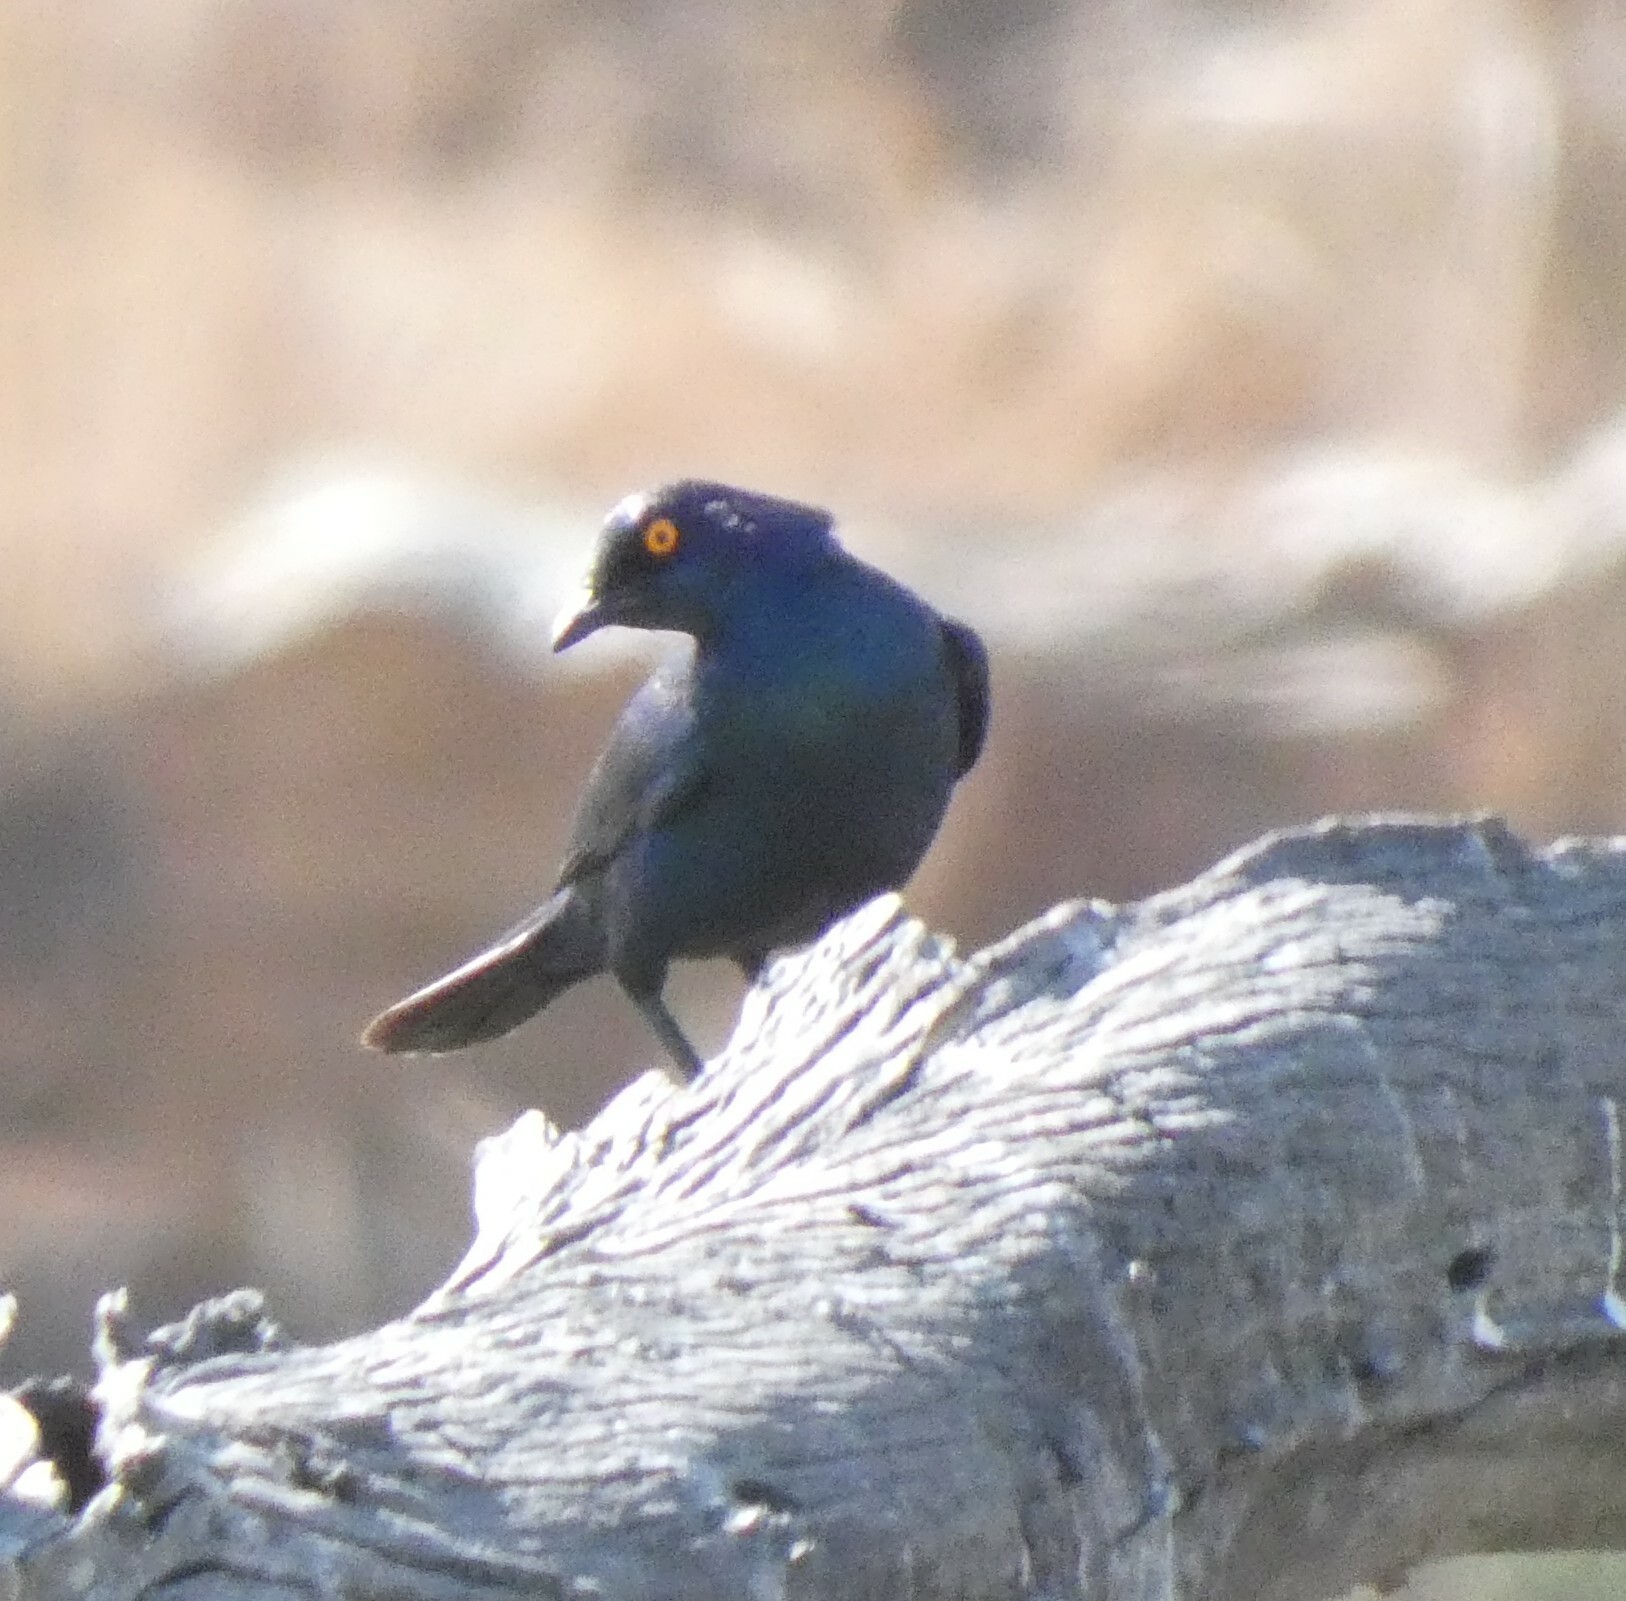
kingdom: Animalia
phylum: Chordata
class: Aves
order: Passeriformes
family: Sturnidae
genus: Lamprotornis
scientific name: Lamprotornis nitens
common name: Cape starling
